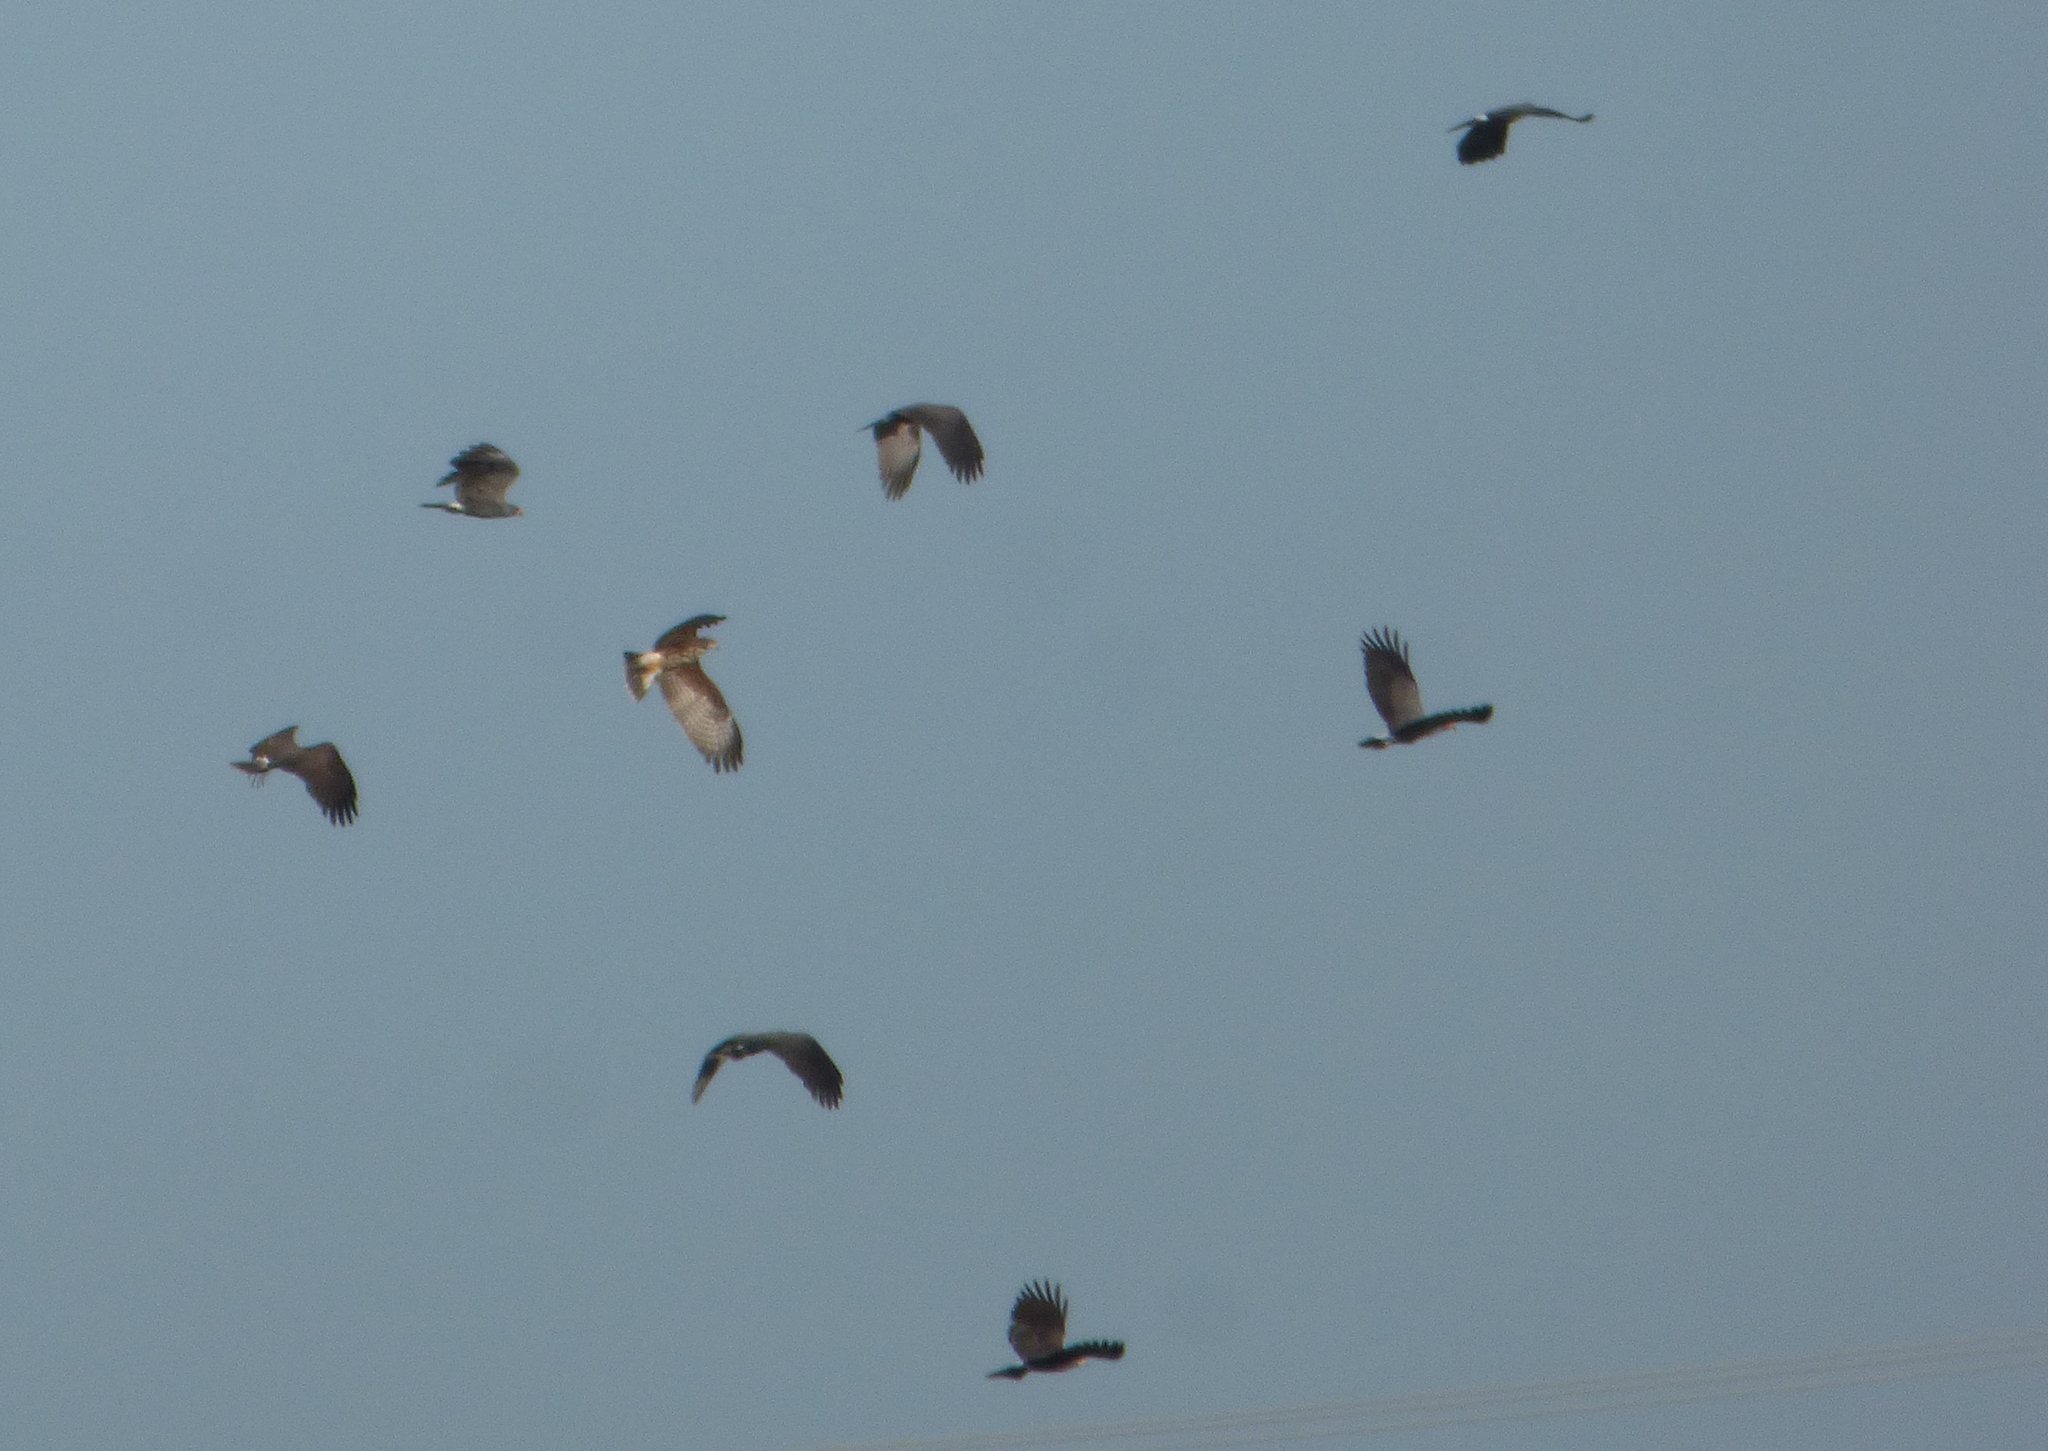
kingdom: Animalia
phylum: Chordata
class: Aves
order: Accipitriformes
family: Accipitridae
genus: Rostrhamus
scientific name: Rostrhamus sociabilis
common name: Snail kite
